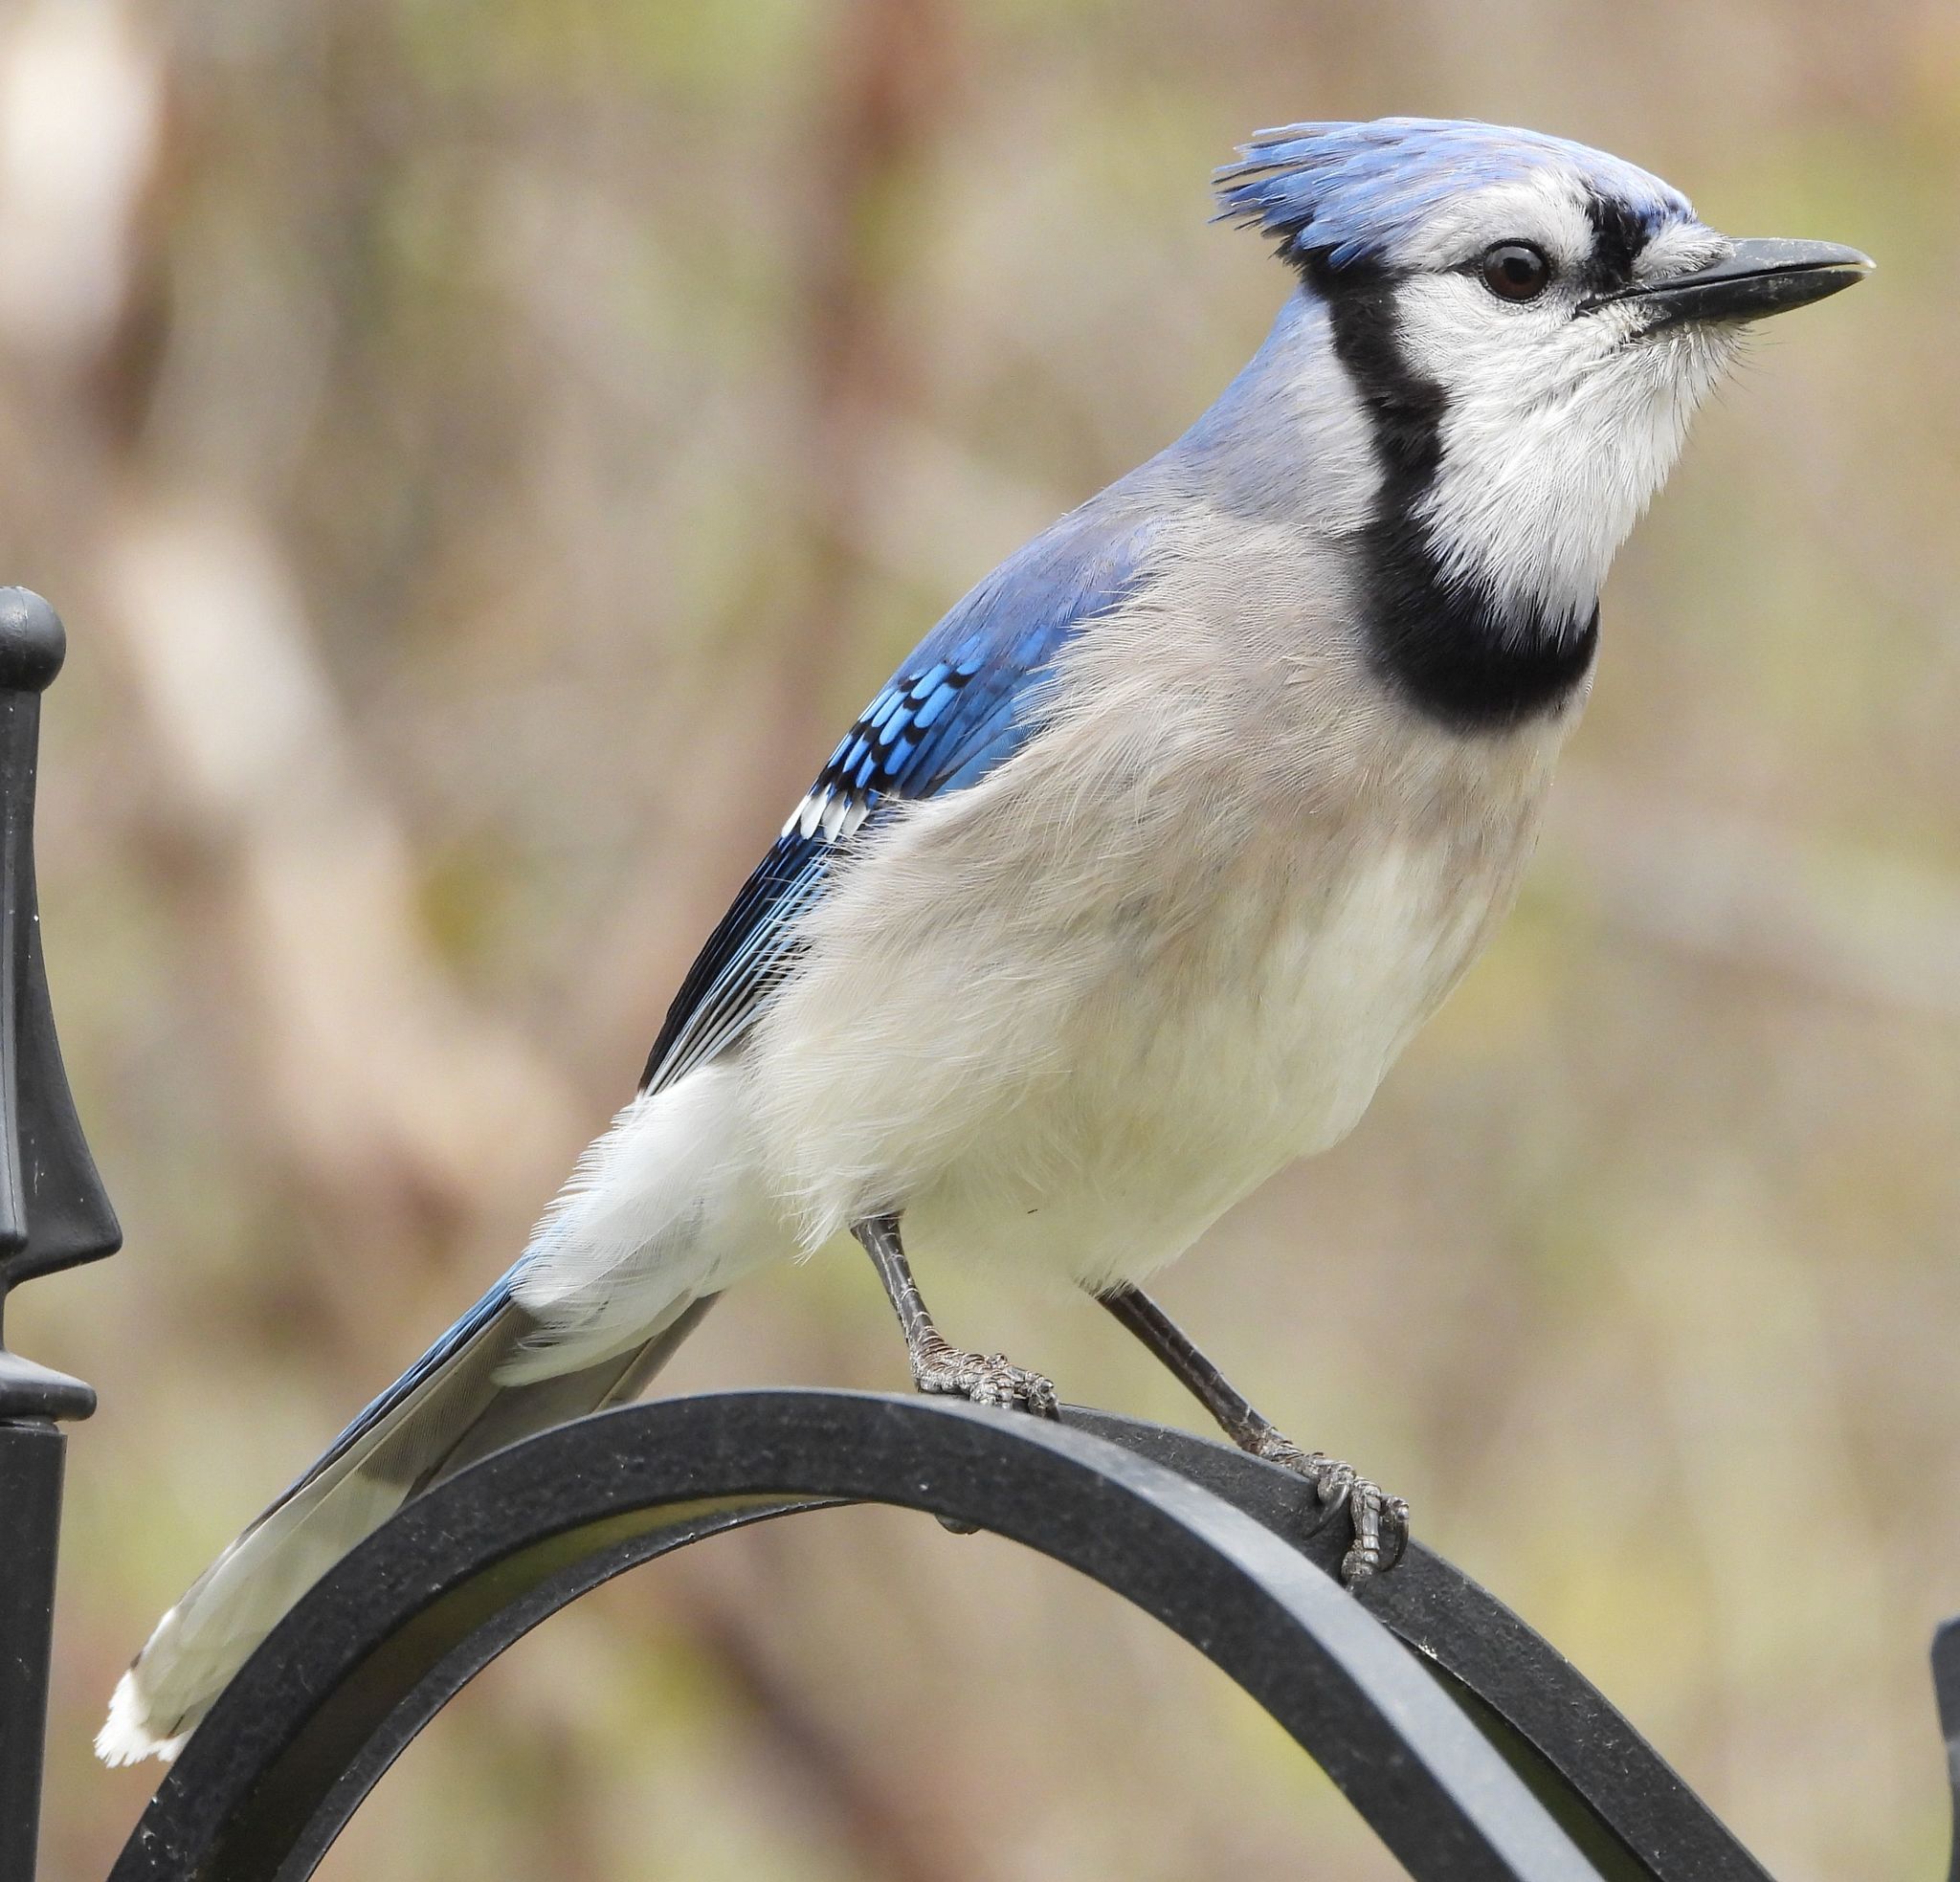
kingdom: Animalia
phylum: Chordata
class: Aves
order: Passeriformes
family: Corvidae
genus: Cyanocitta
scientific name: Cyanocitta cristata
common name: Blue jay
